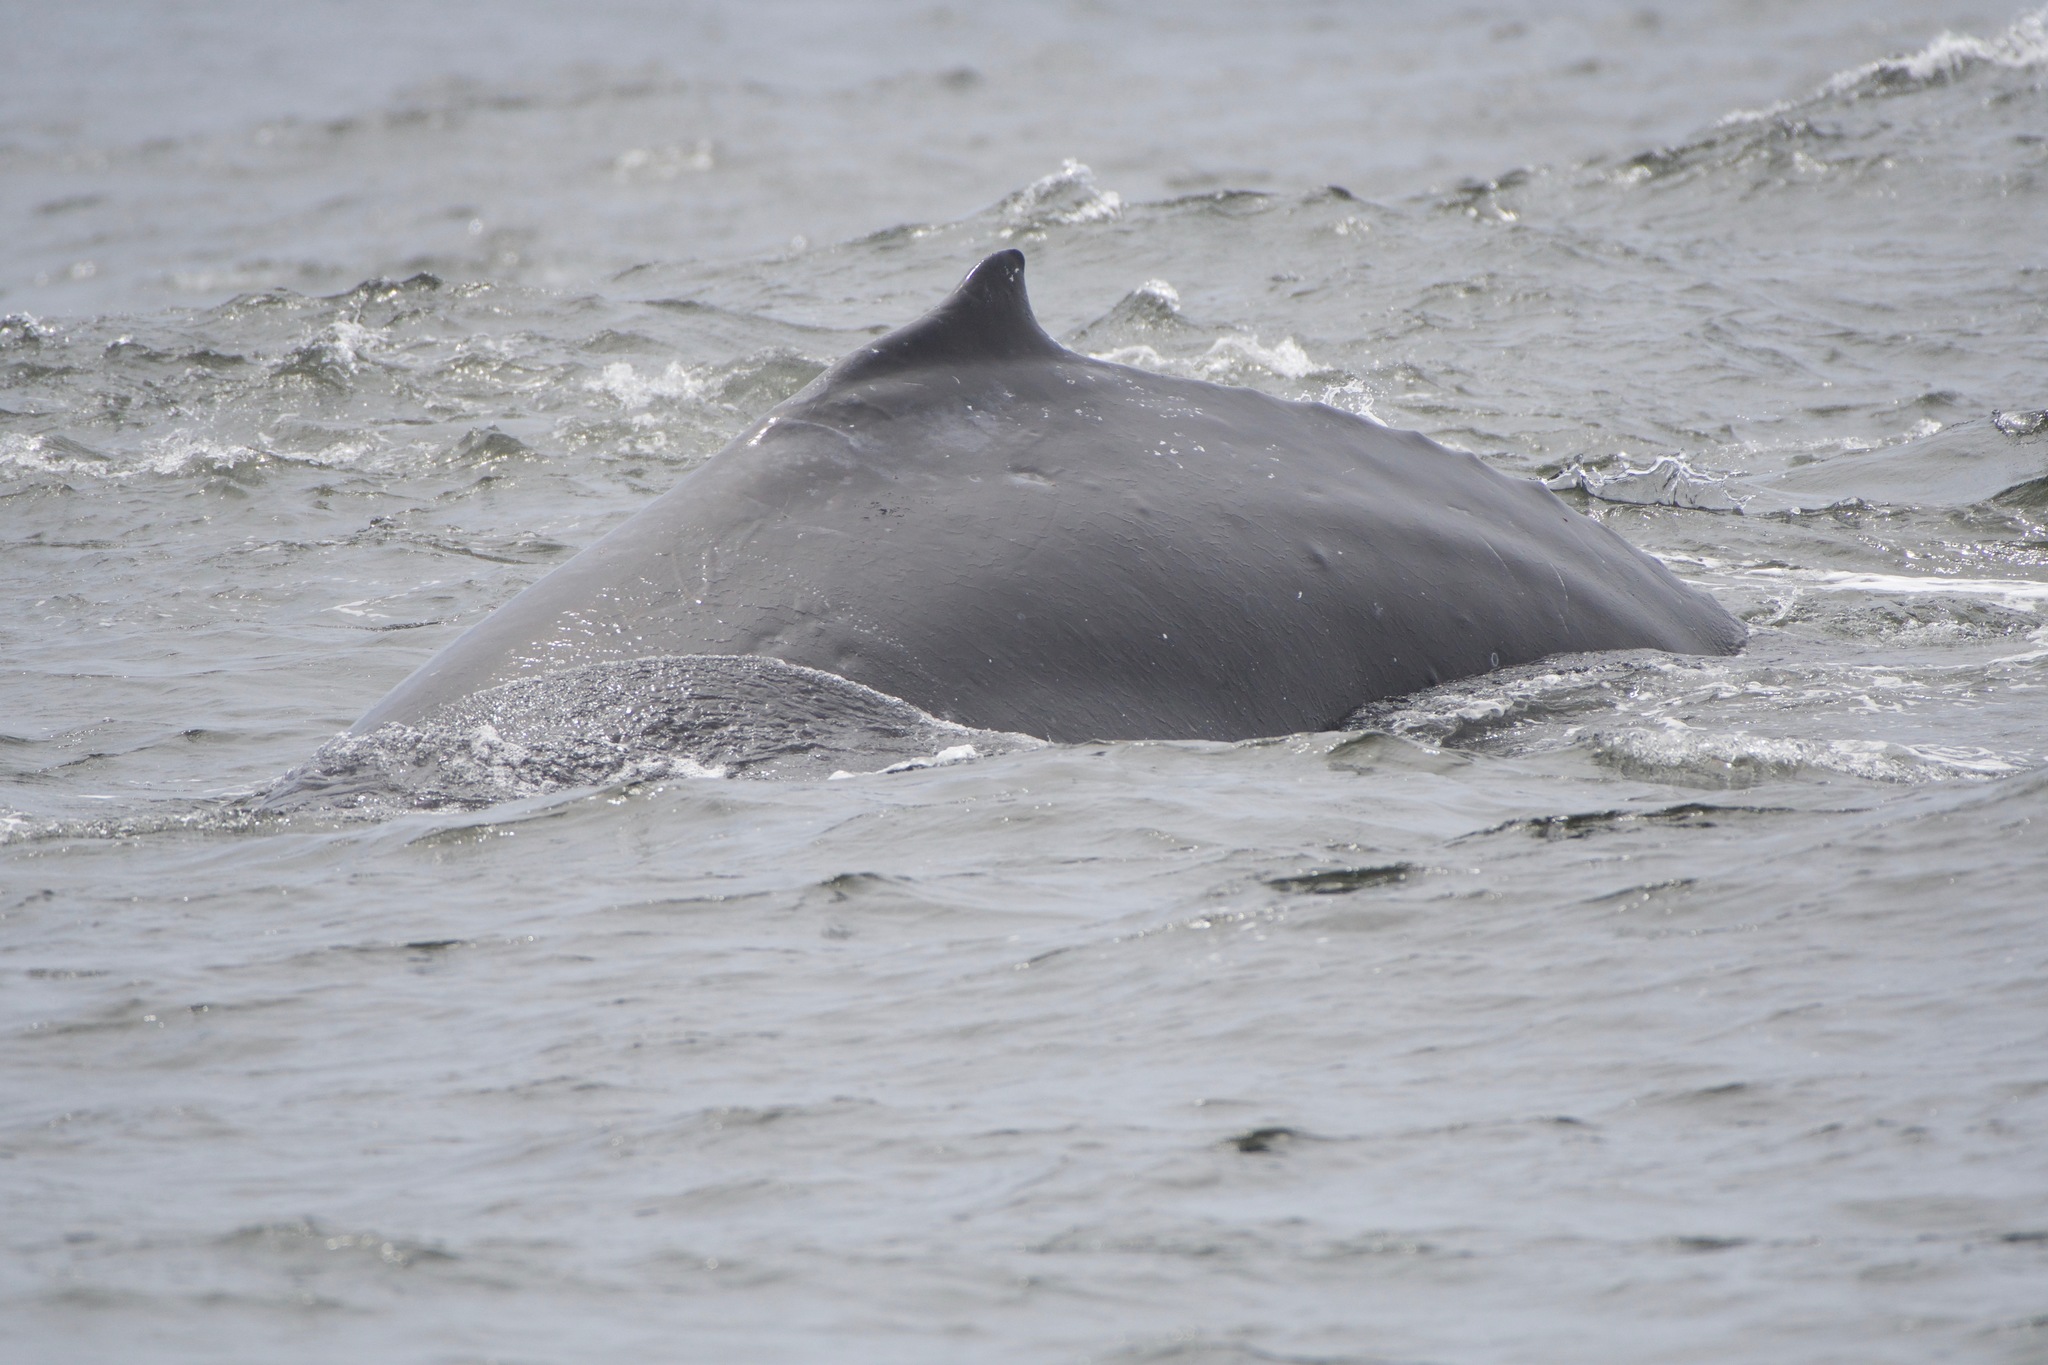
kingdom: Animalia
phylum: Chordata
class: Mammalia
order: Cetacea
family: Balaenopteridae
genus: Megaptera
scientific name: Megaptera novaeangliae
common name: Humpback whale
